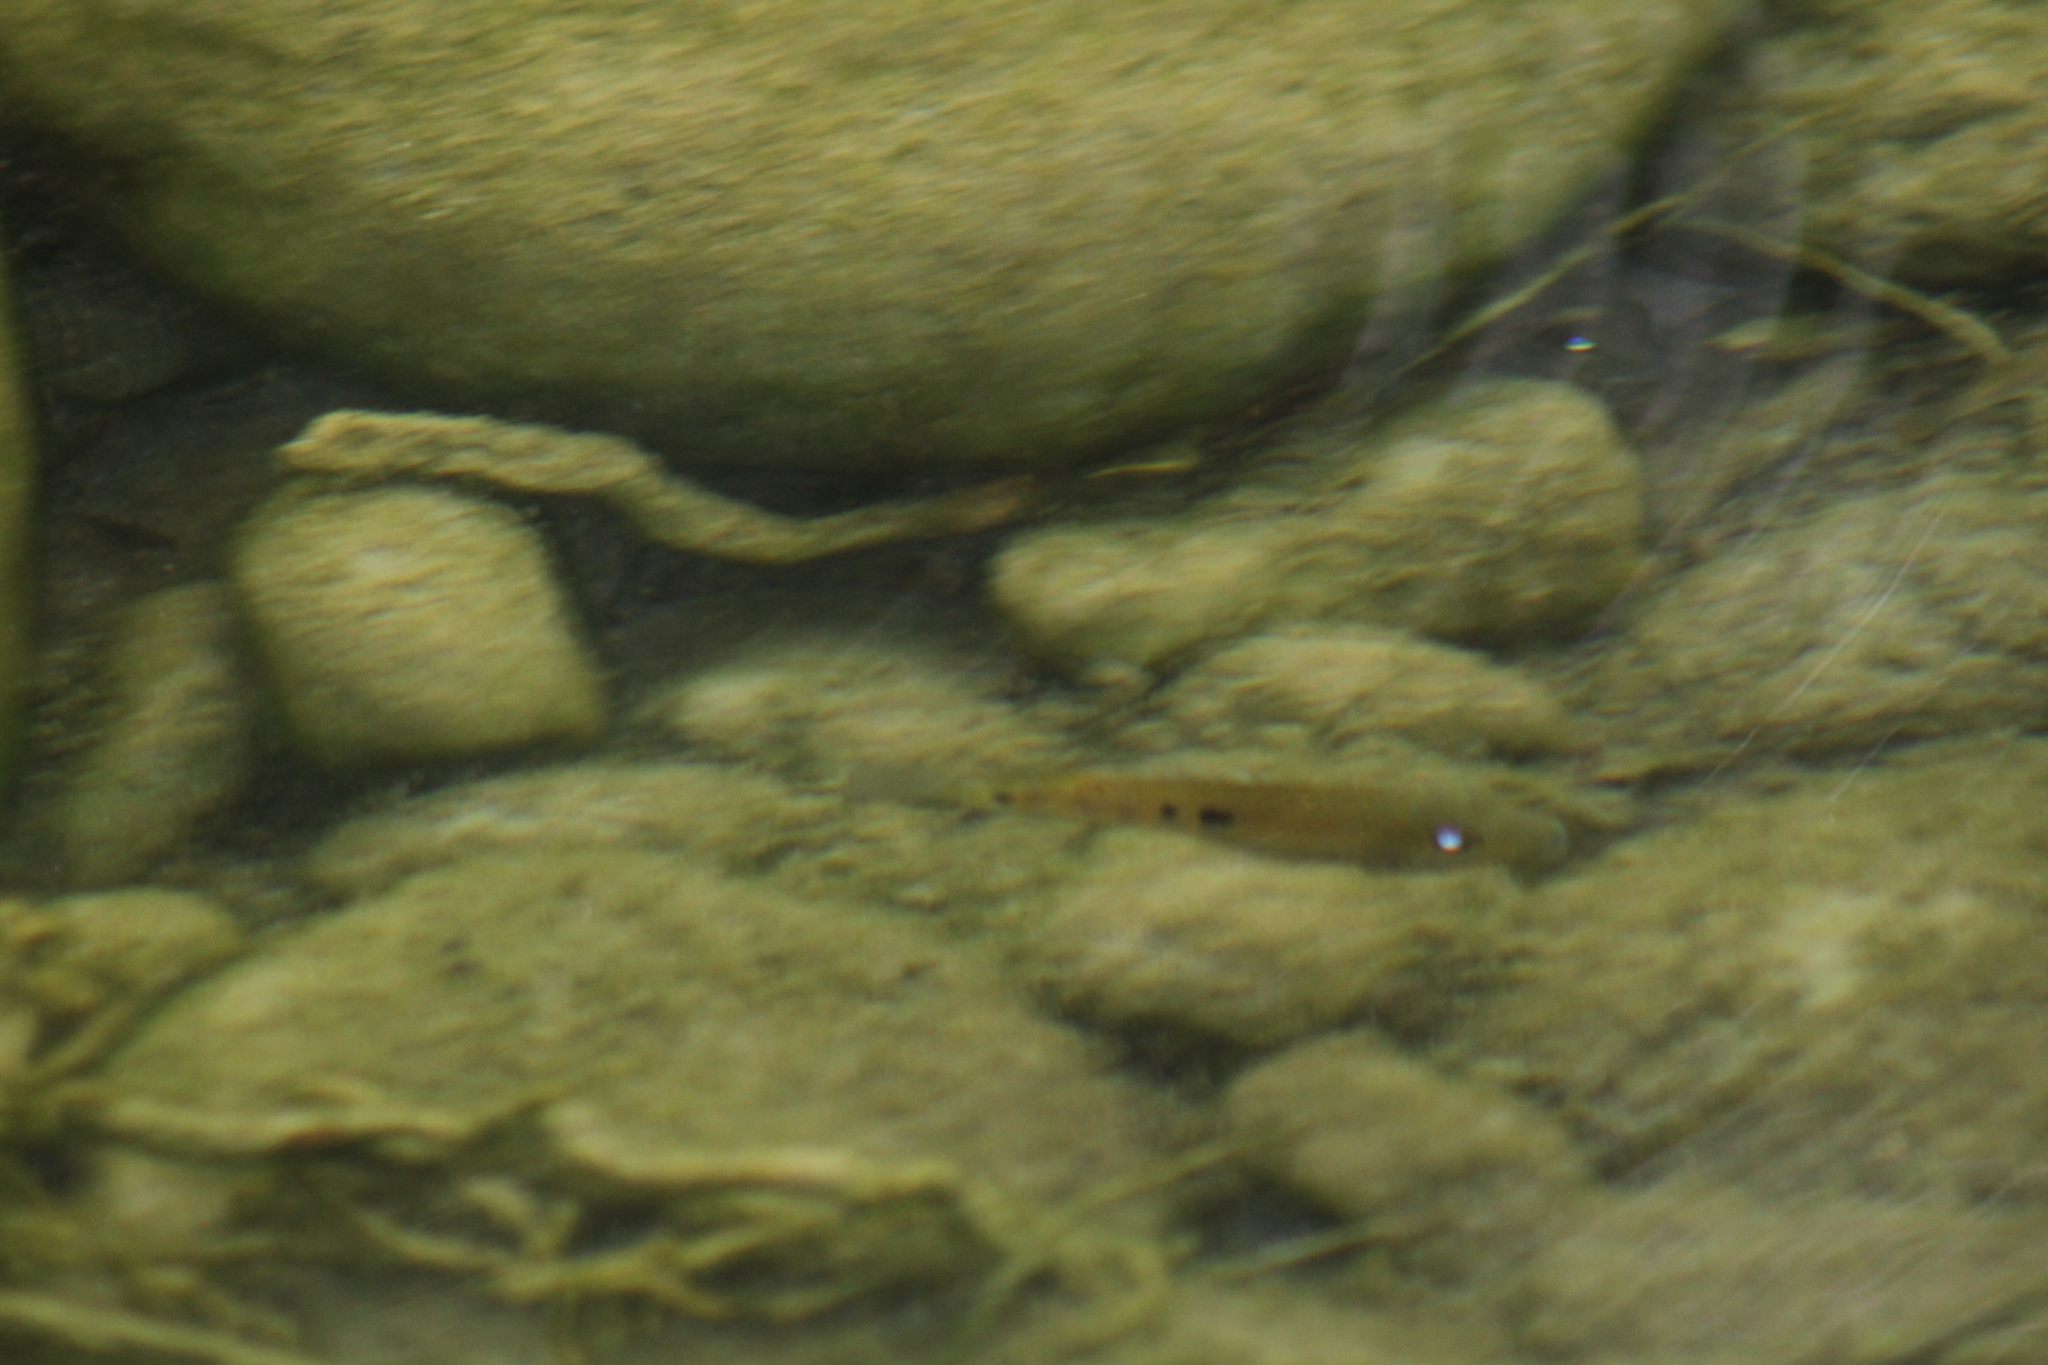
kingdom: Animalia
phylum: Chordata
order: Perciformes
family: Cichlidae
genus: Nosferatu
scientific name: Nosferatu pantostictus
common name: Chairel cichlid
